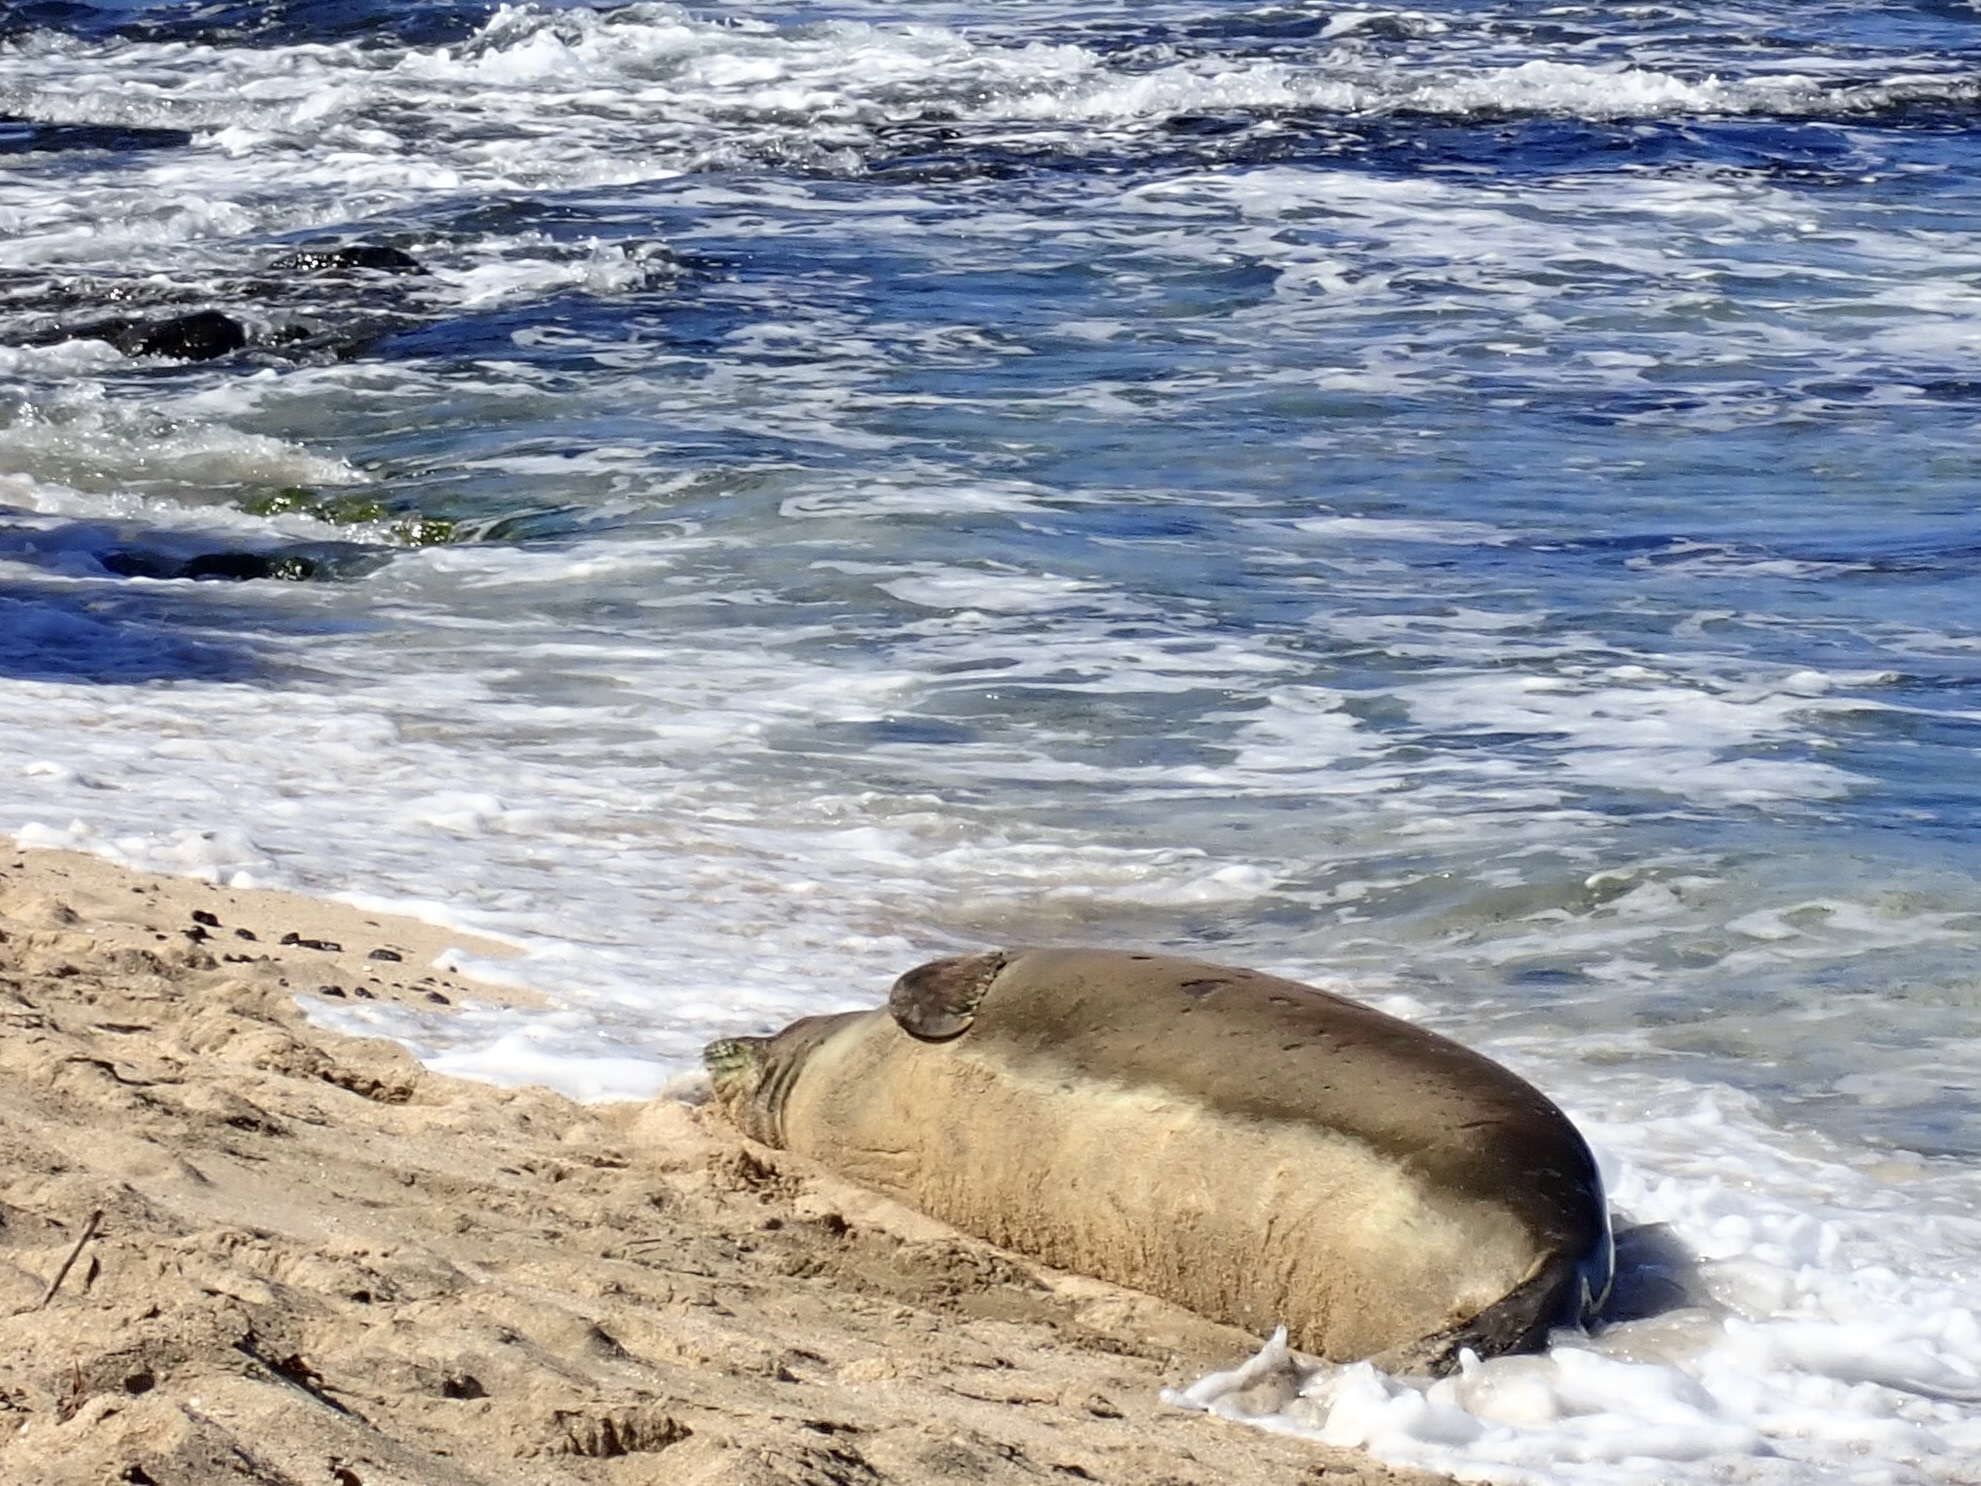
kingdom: Animalia
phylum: Chordata
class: Mammalia
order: Carnivora
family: Phocidae
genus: Neomonachus
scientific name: Neomonachus schauinslandi
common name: Hawaiian monk seal
